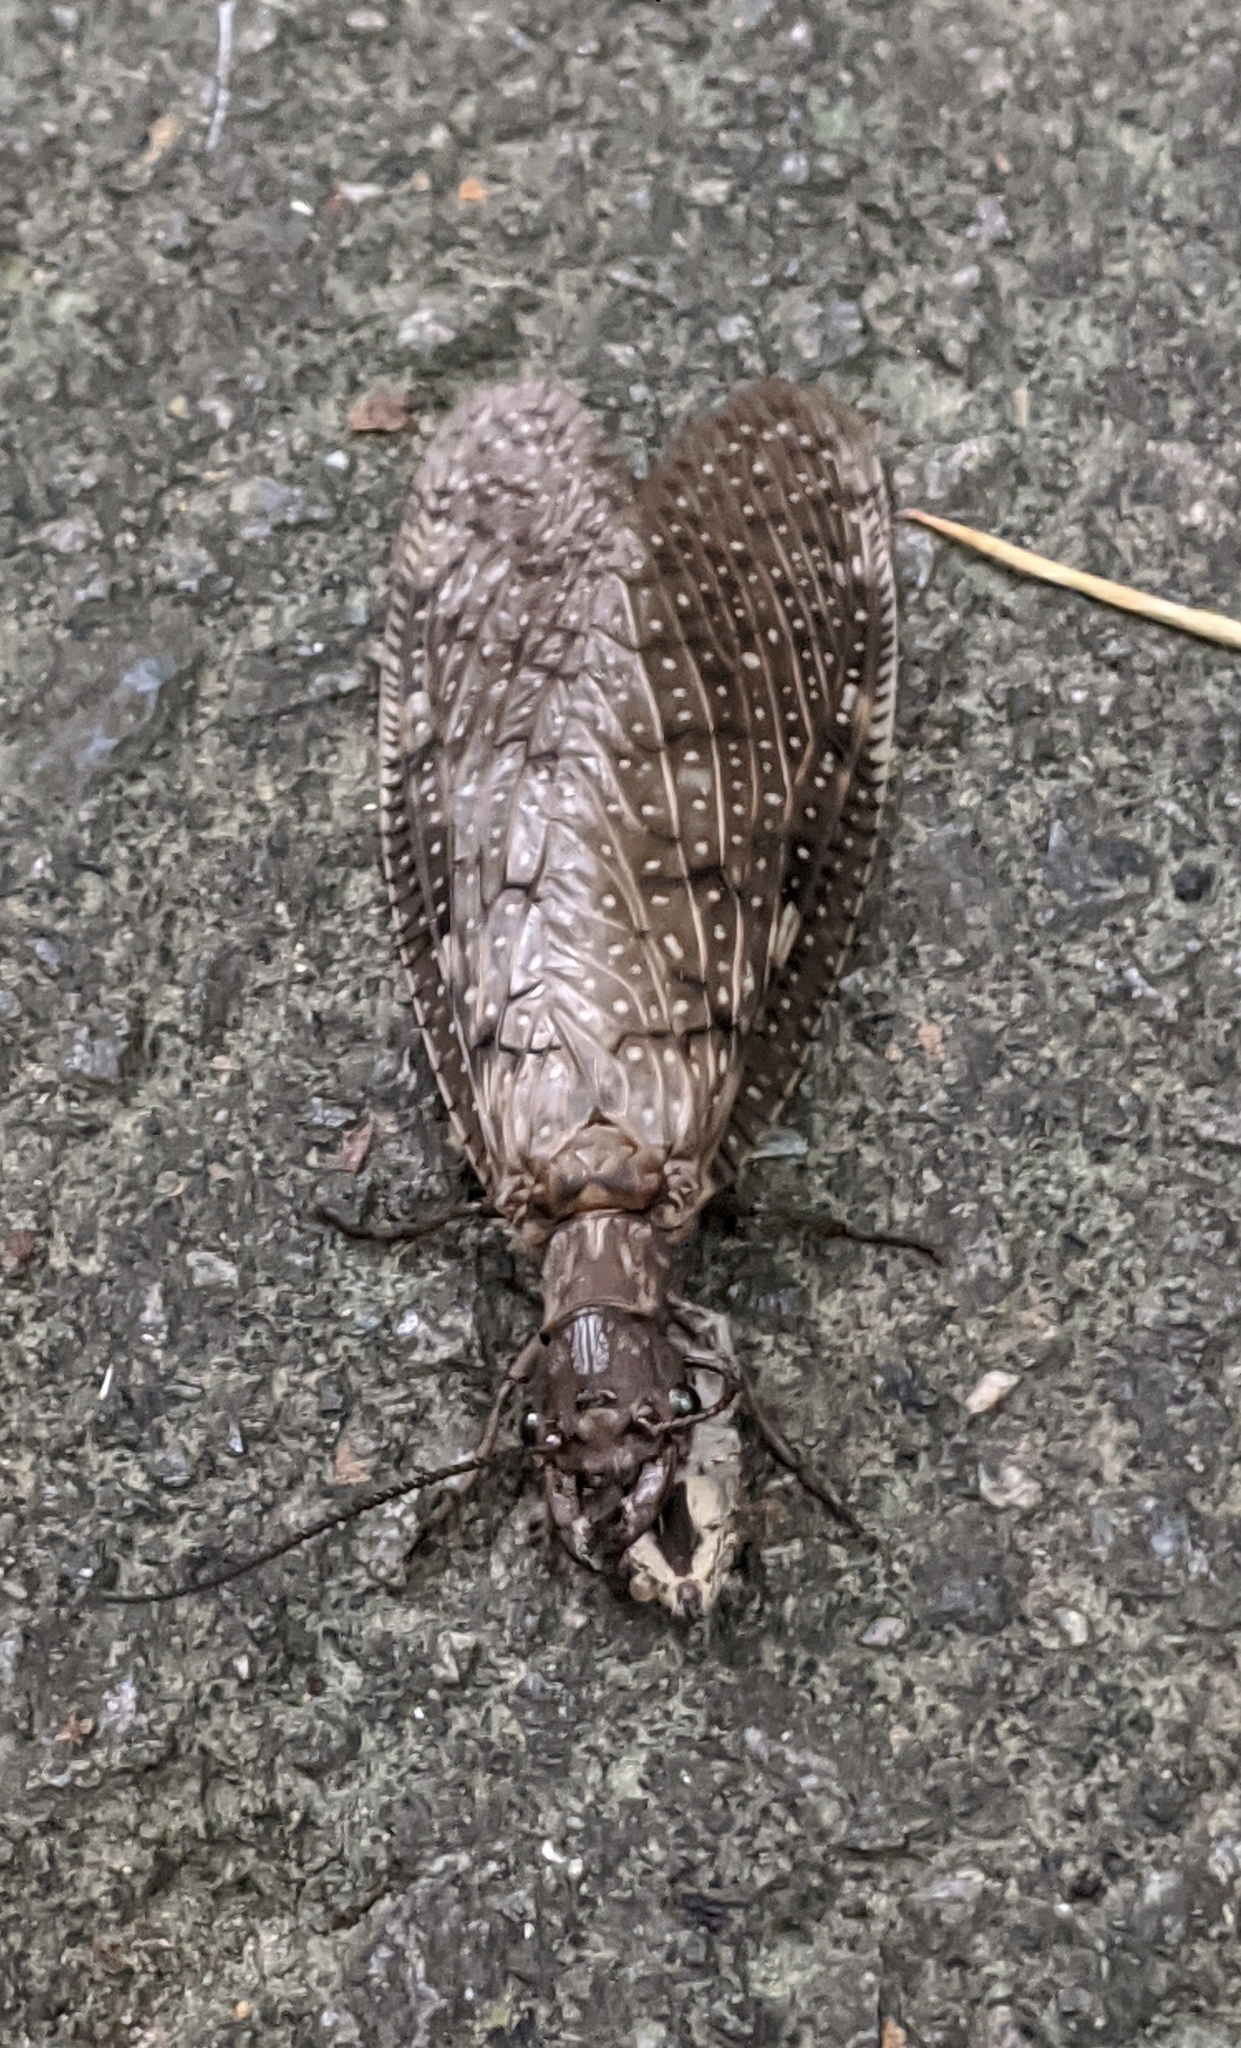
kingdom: Animalia
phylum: Arthropoda
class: Insecta
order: Megaloptera
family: Corydalidae
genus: Corydalus
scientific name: Corydalus cornutus
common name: Dobsonfly
